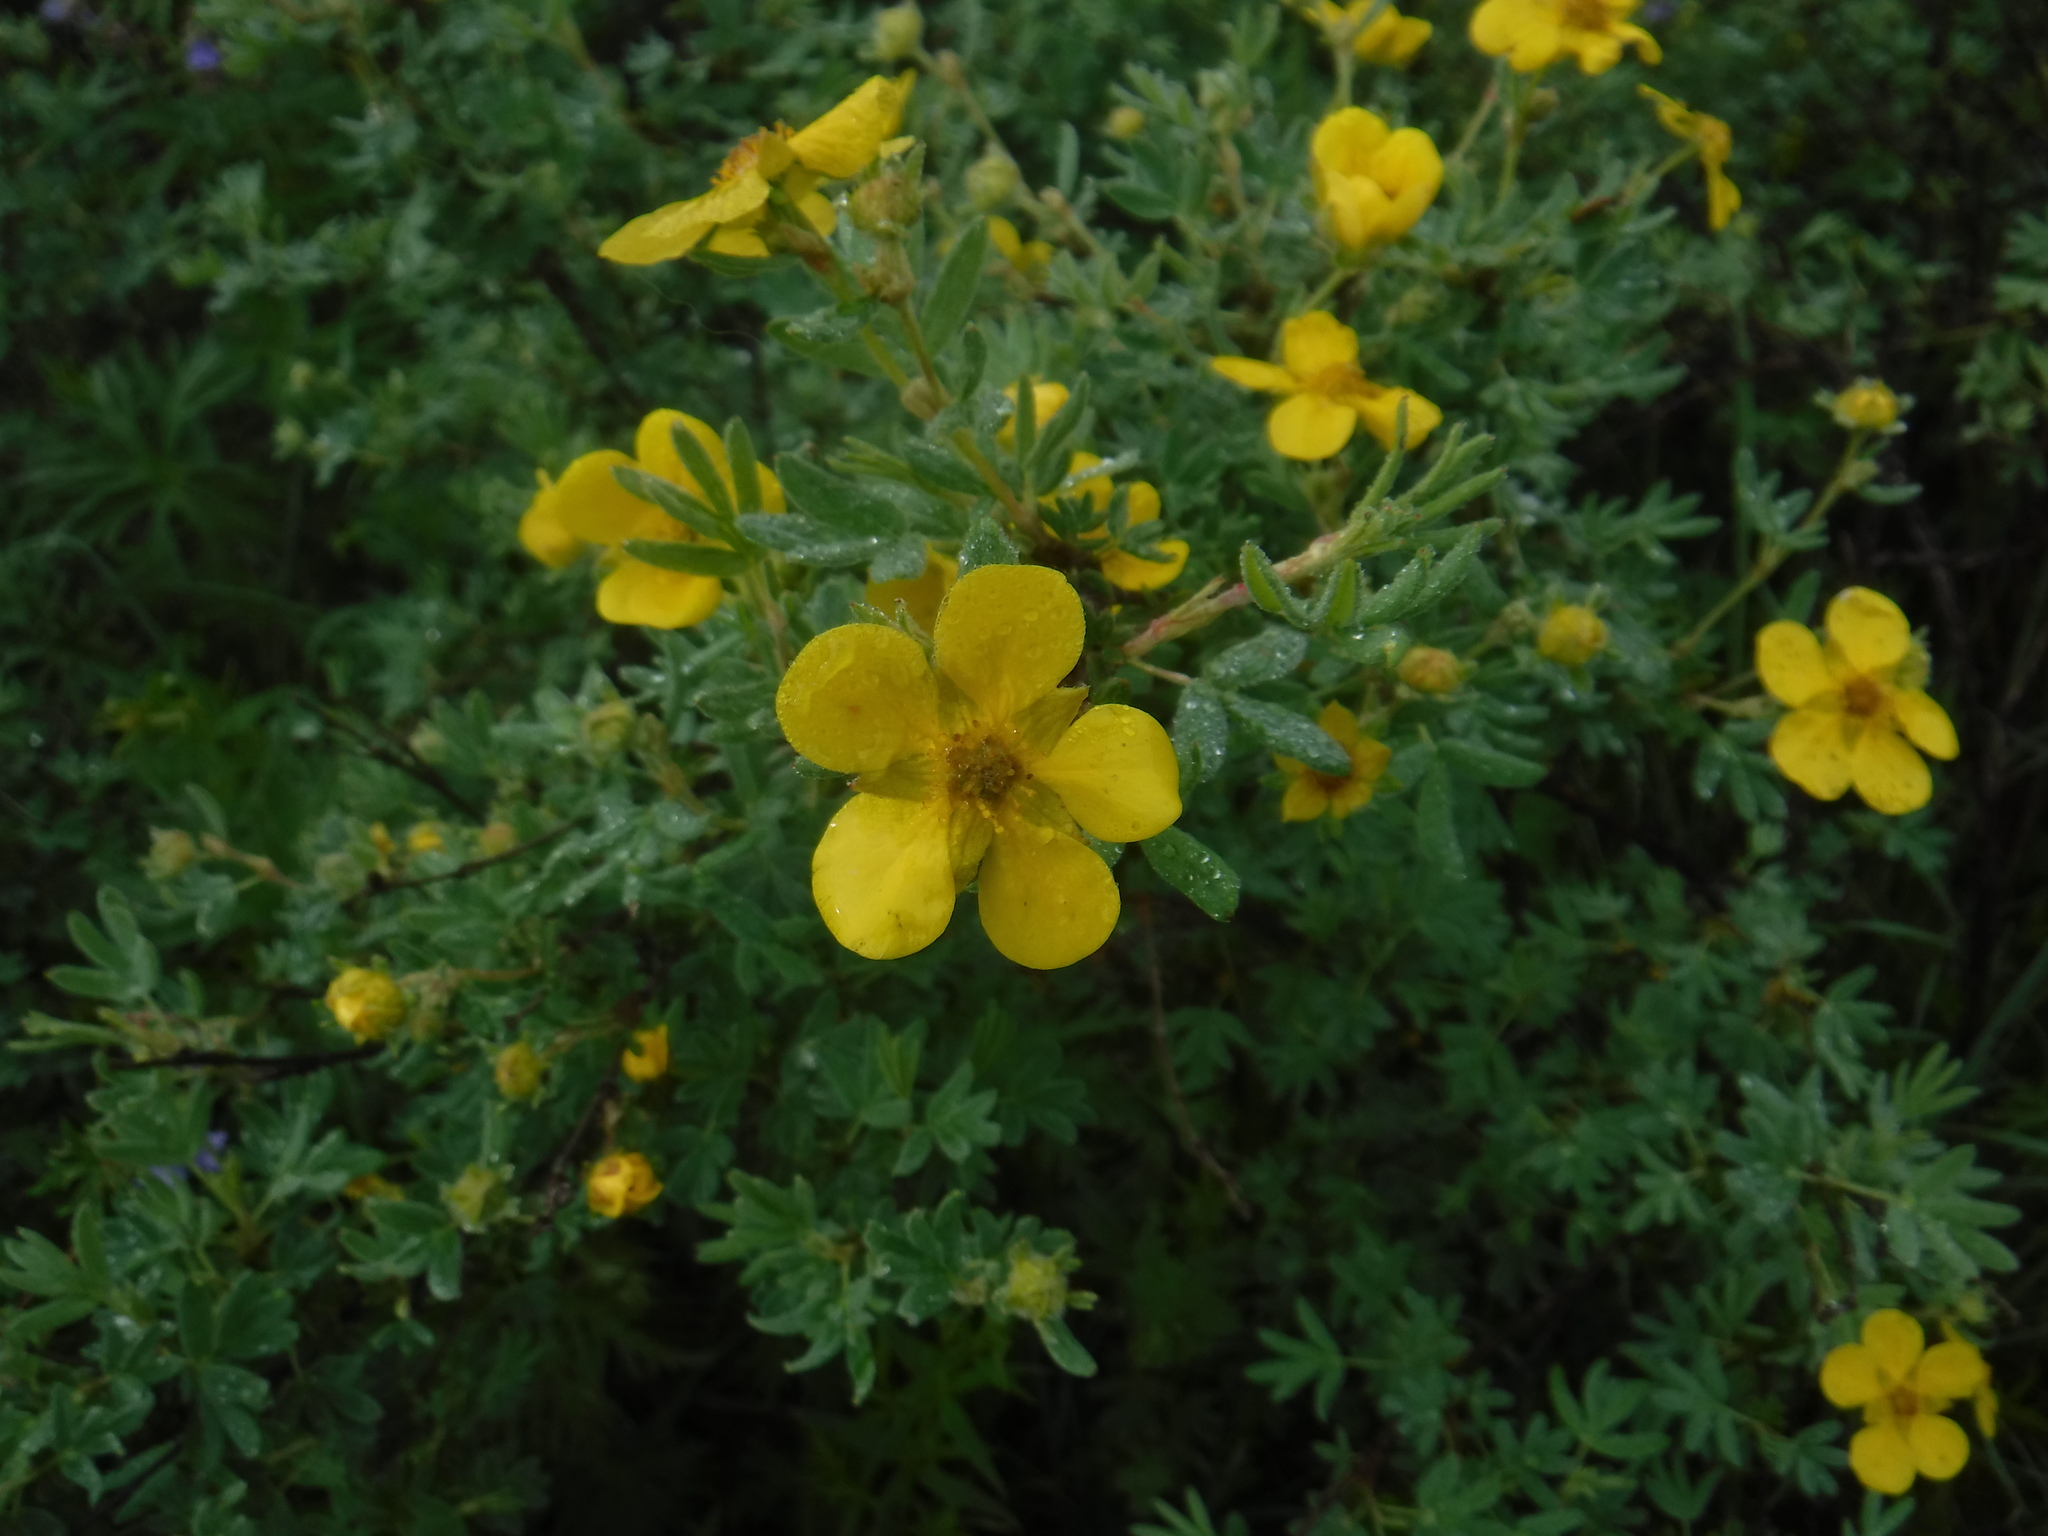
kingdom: Plantae
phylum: Tracheophyta
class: Magnoliopsida
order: Rosales
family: Rosaceae
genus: Dasiphora
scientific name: Dasiphora fruticosa
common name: Shrubby cinquefoil
